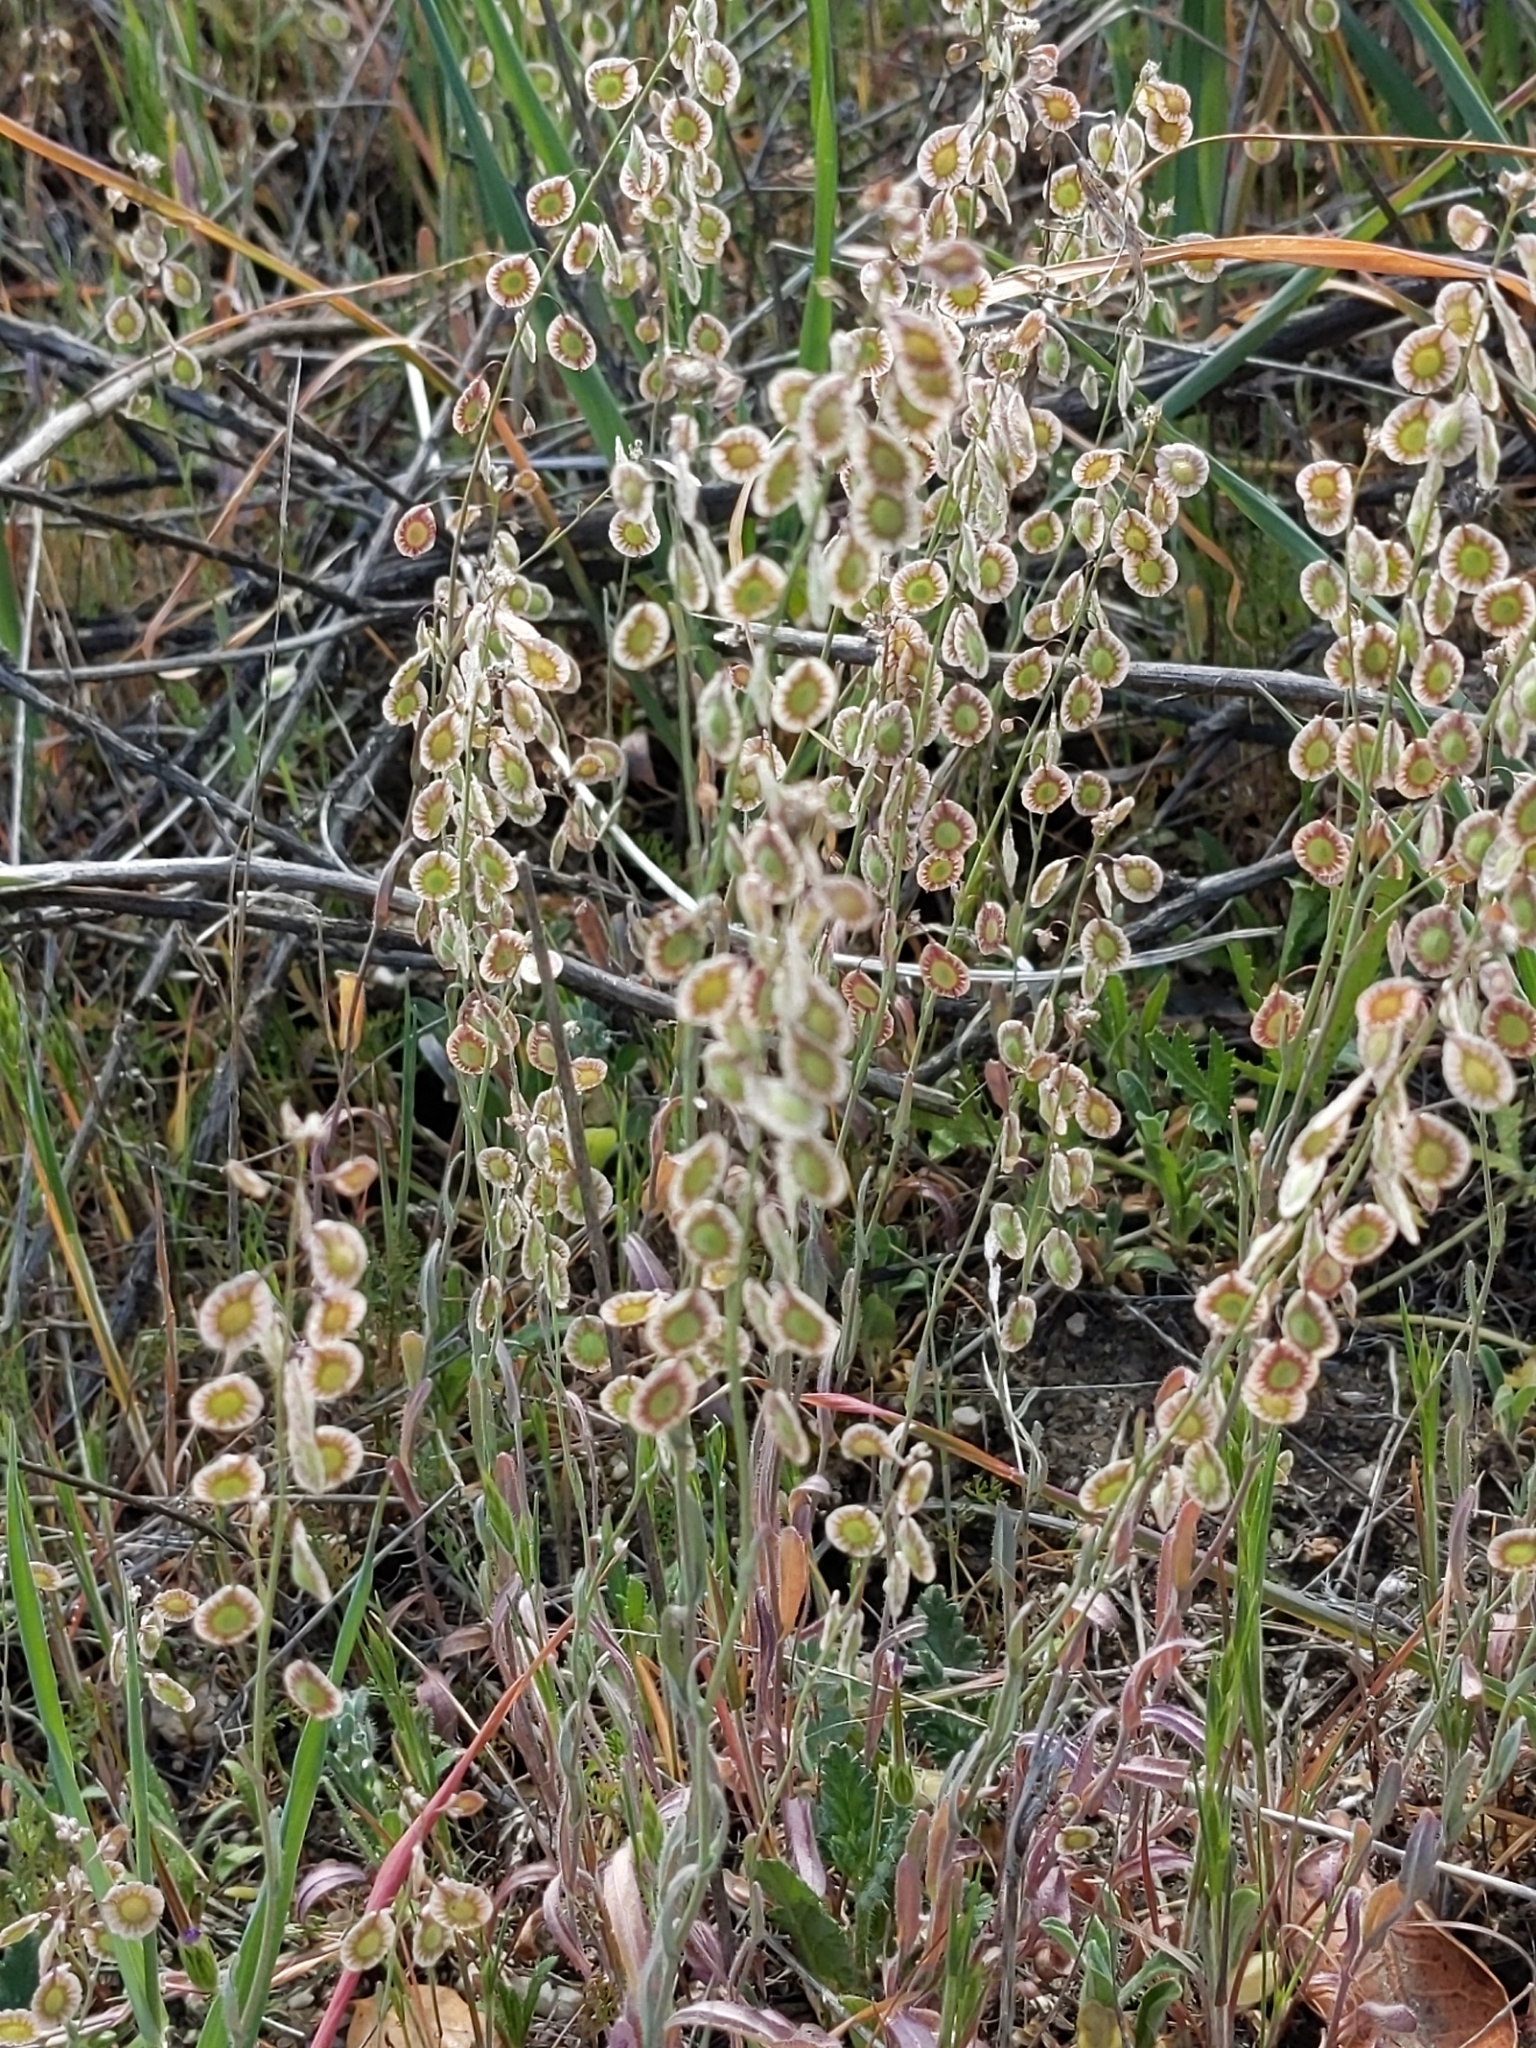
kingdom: Plantae
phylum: Tracheophyta
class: Magnoliopsida
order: Brassicales
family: Brassicaceae
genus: Thysanocarpus
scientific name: Thysanocarpus curvipes
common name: Sand fringepod
